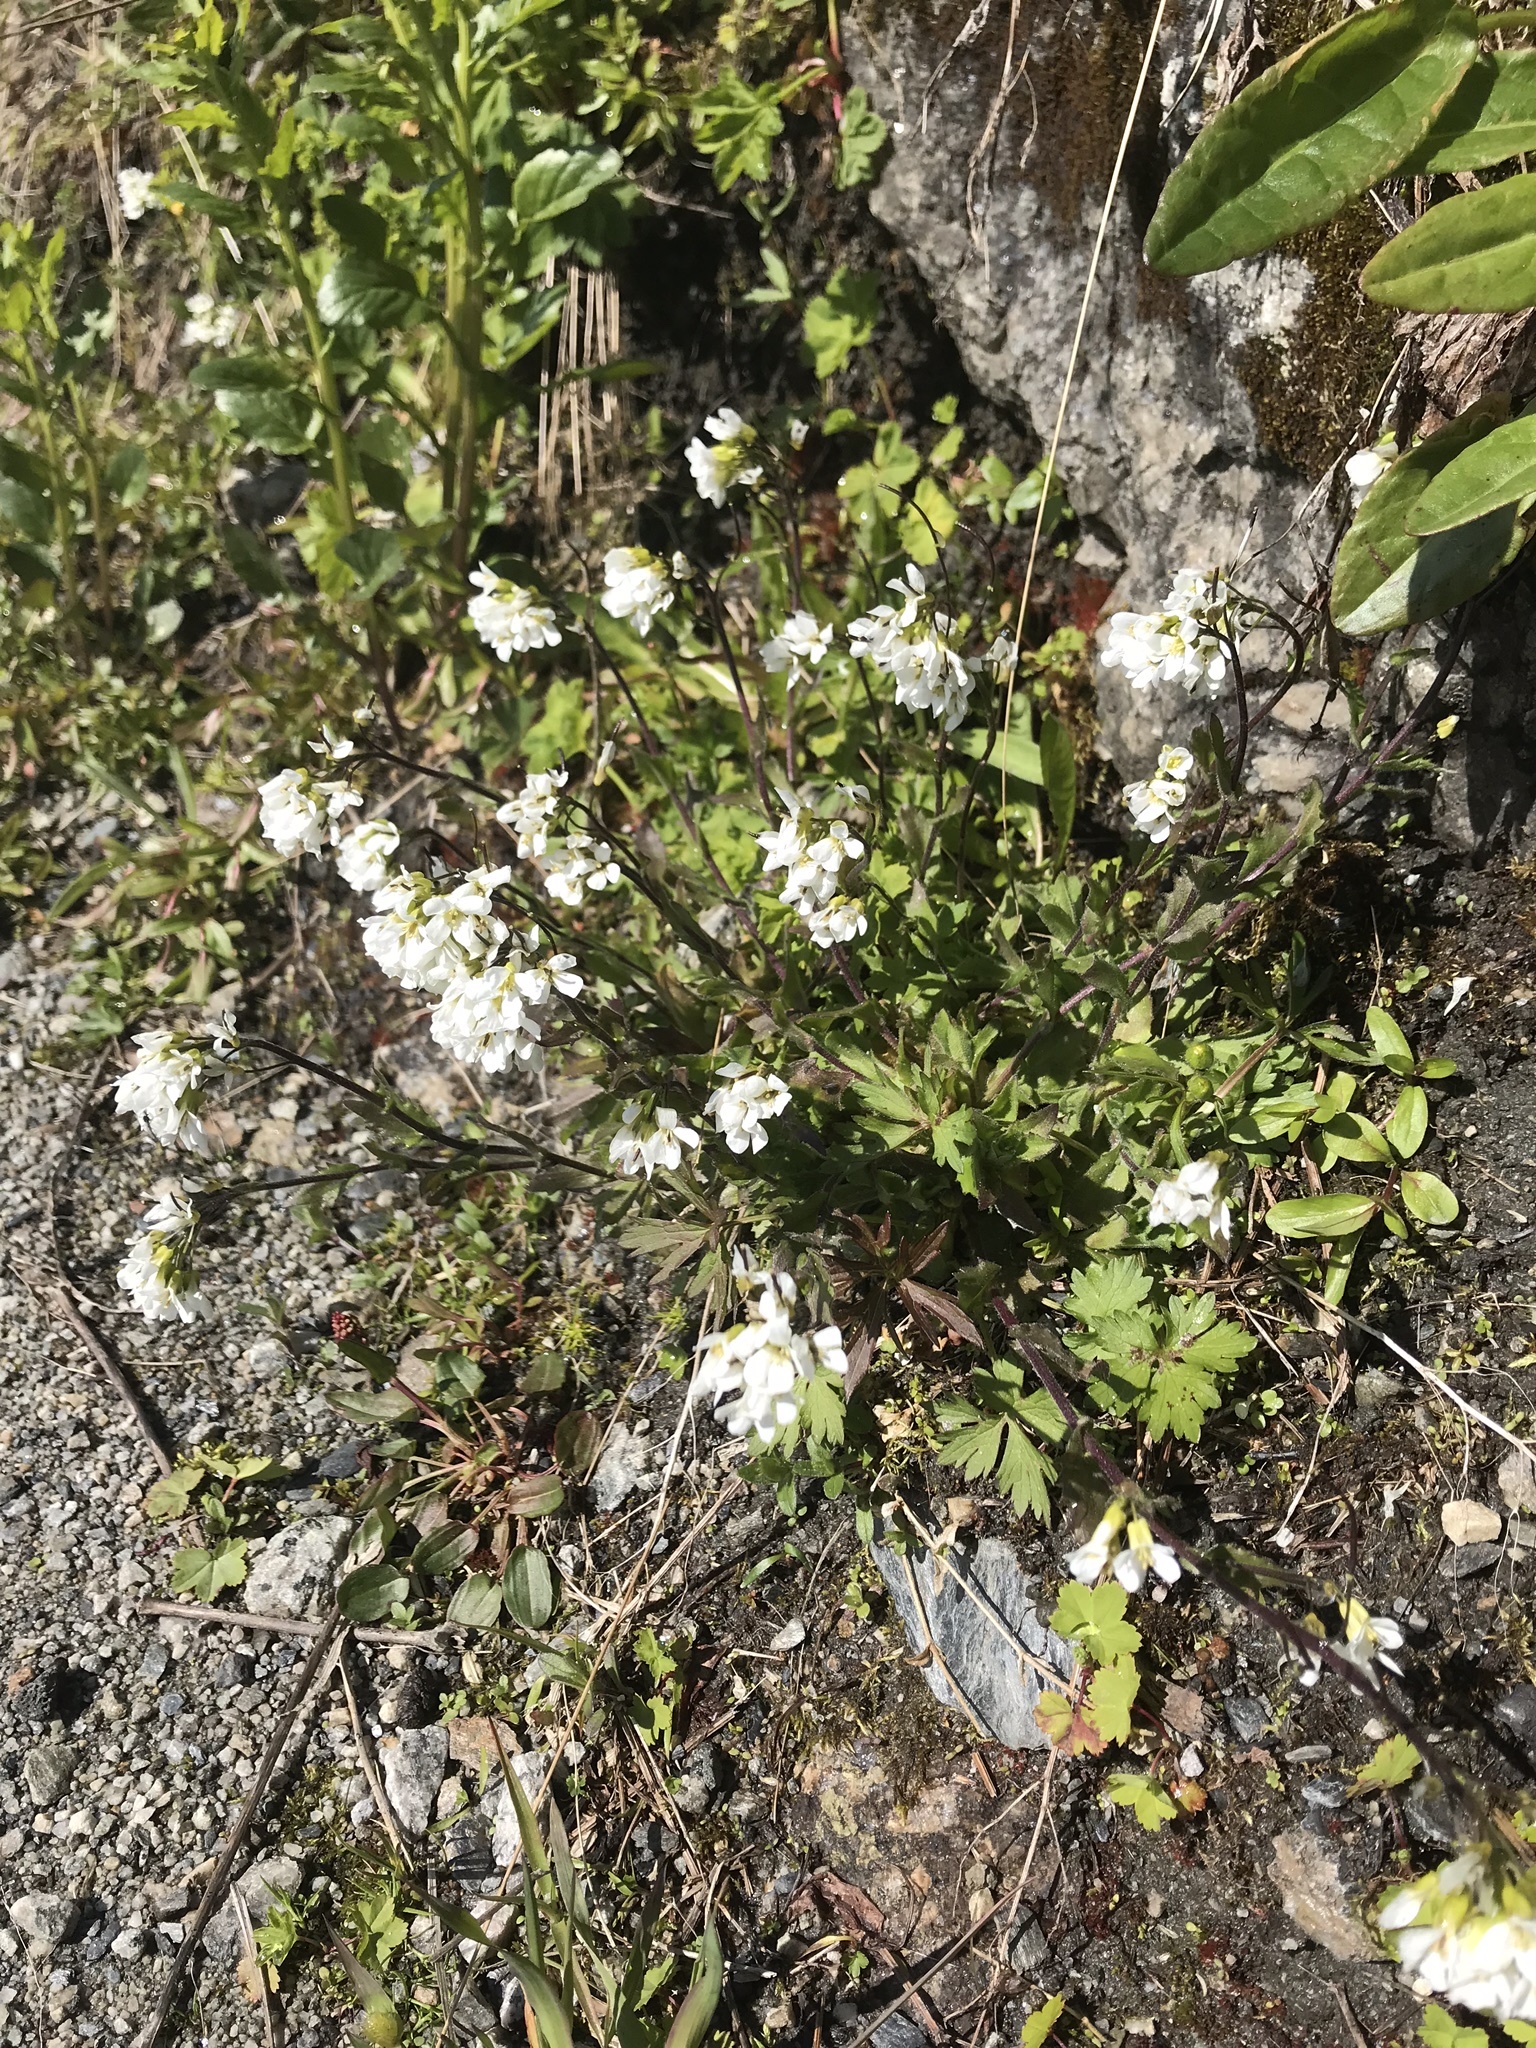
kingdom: Plantae
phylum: Tracheophyta
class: Magnoliopsida
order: Brassicales
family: Brassicaceae
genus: Arabis
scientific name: Arabis alpina
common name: Alpine rock-cress
